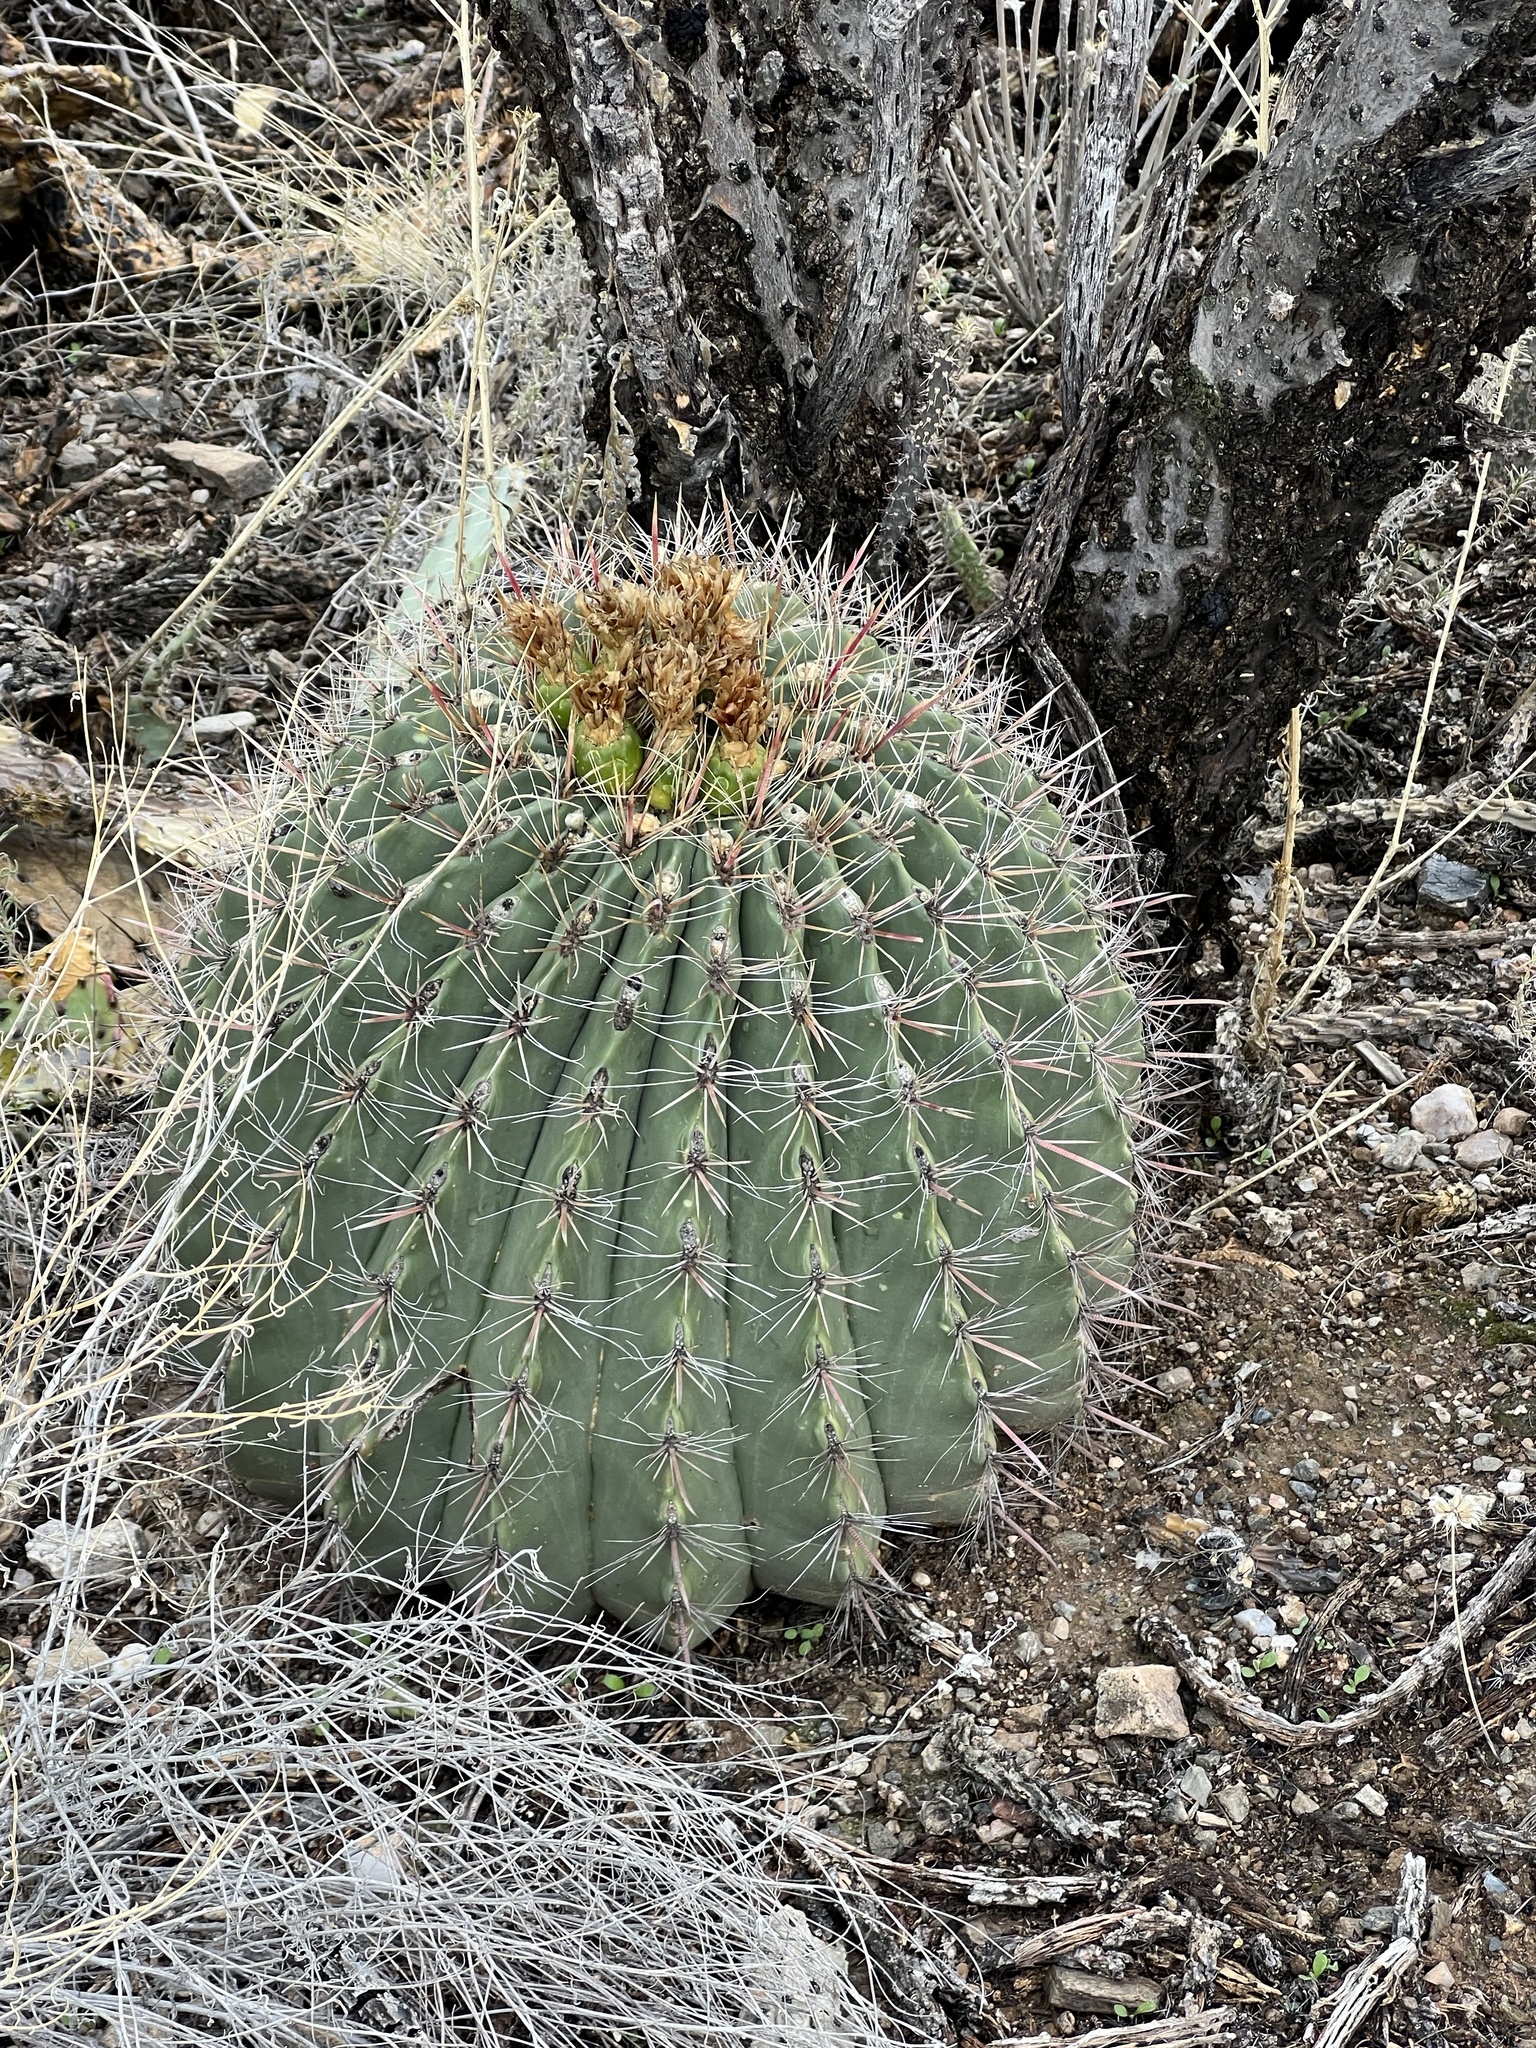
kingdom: Plantae
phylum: Tracheophyta
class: Magnoliopsida
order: Caryophyllales
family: Cactaceae
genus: Ferocactus
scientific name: Ferocactus wislizeni
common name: Candy barrel cactus
